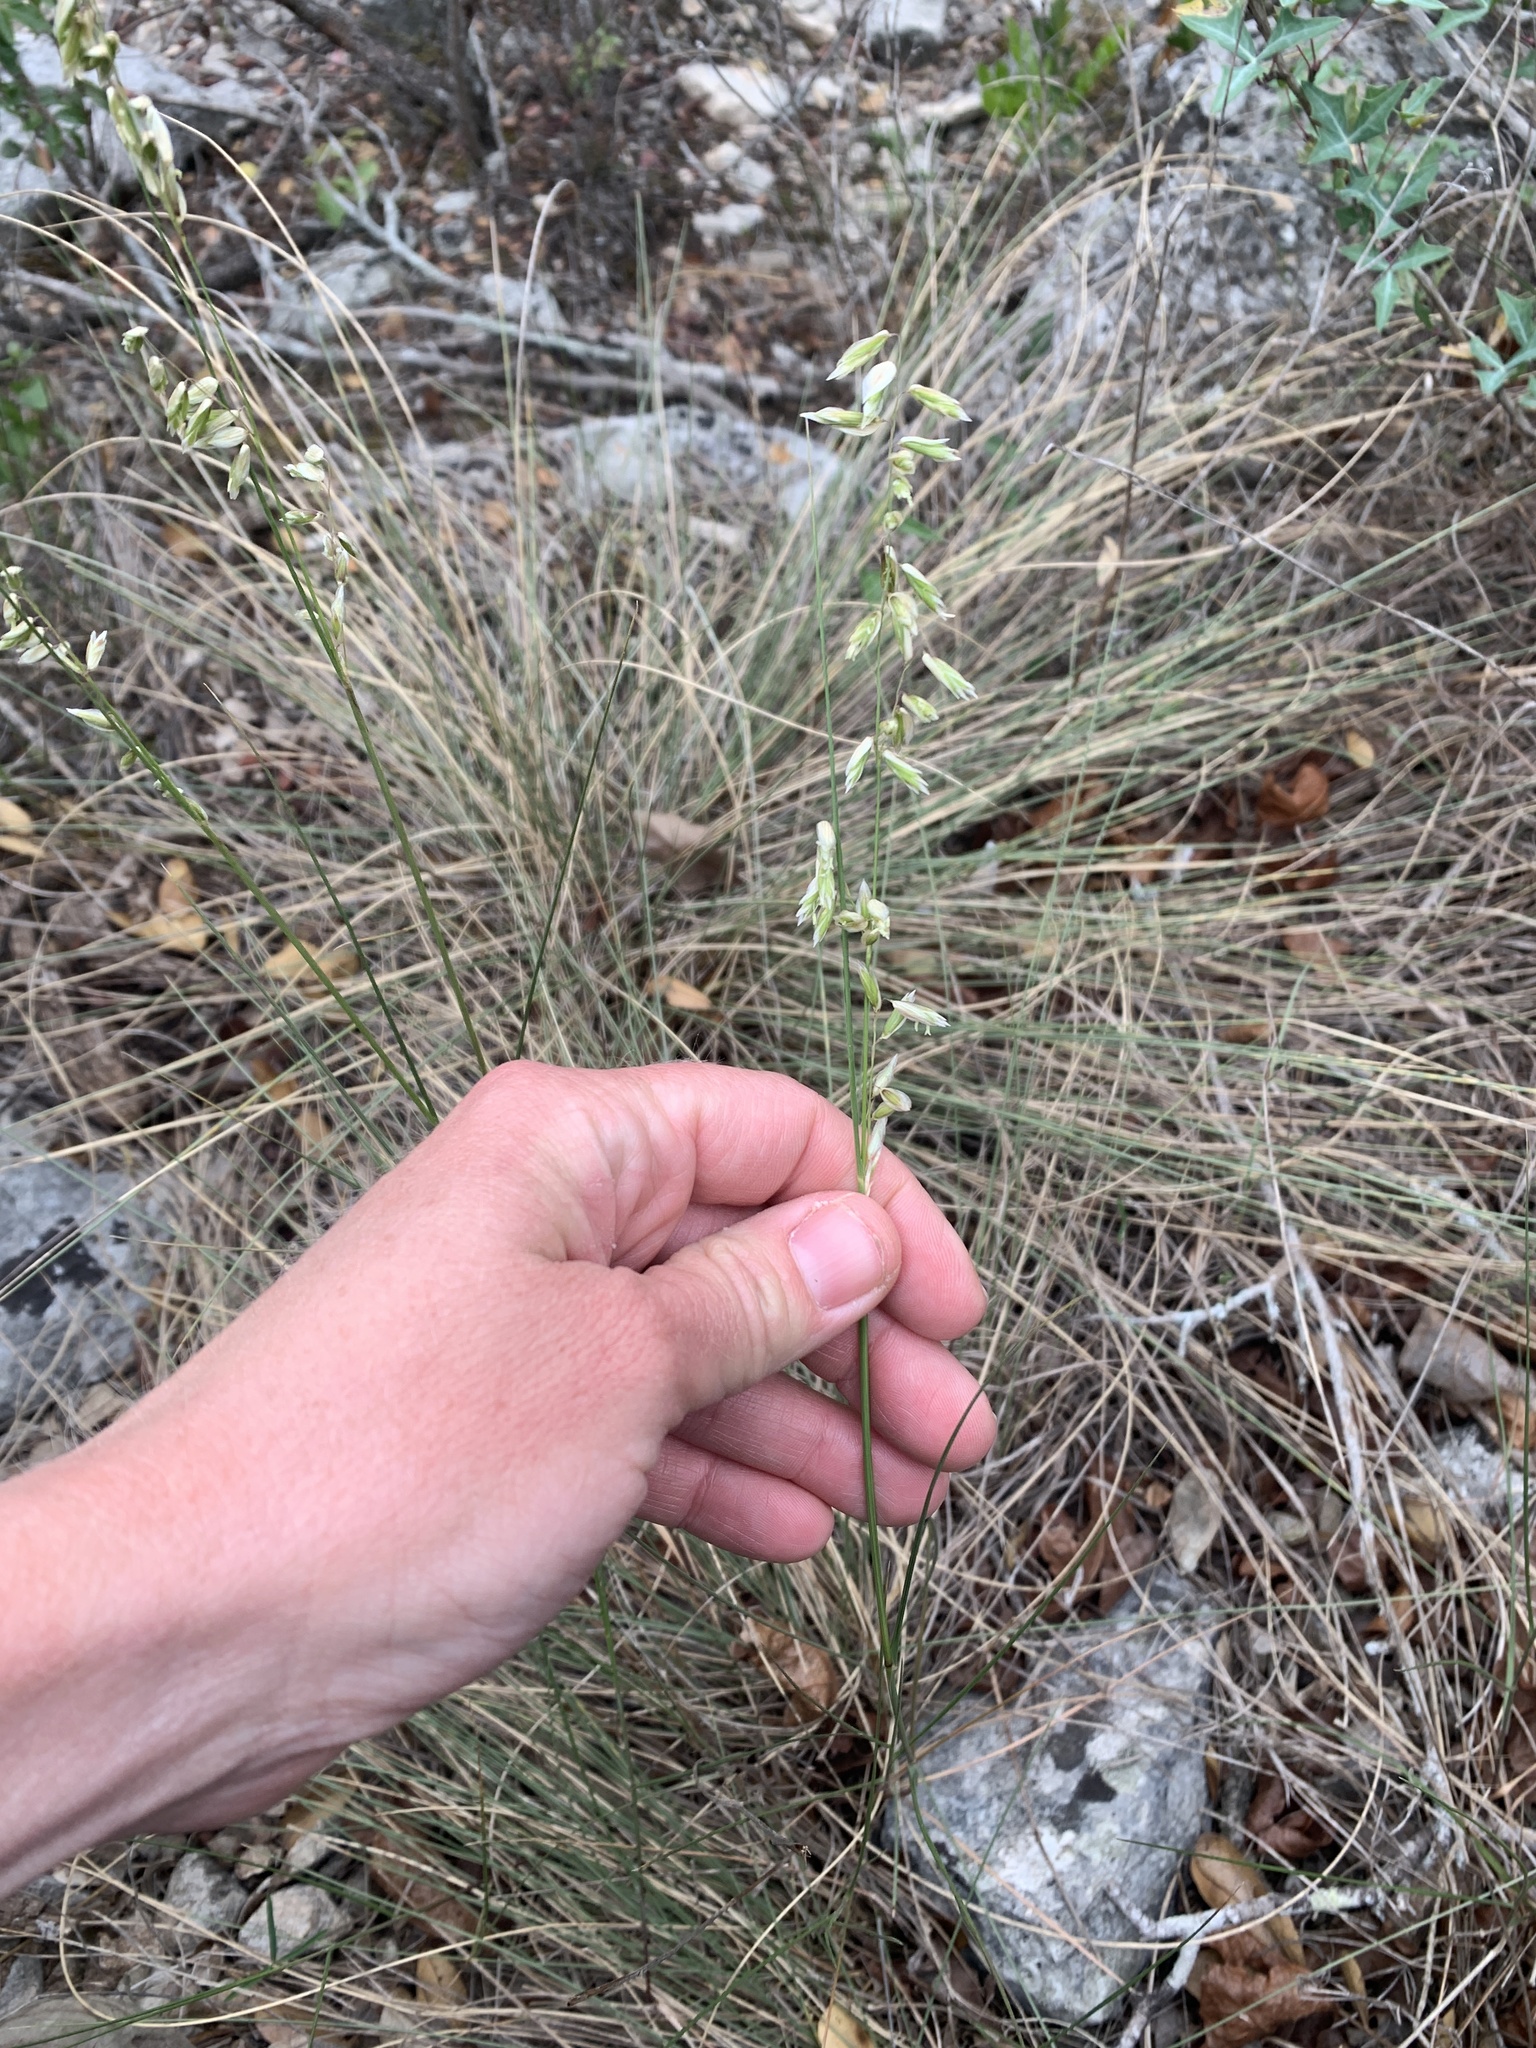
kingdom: Plantae
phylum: Tracheophyta
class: Liliopsida
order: Poales
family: Poaceae
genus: Melica
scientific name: Melica nitens
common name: Three-flower melic
